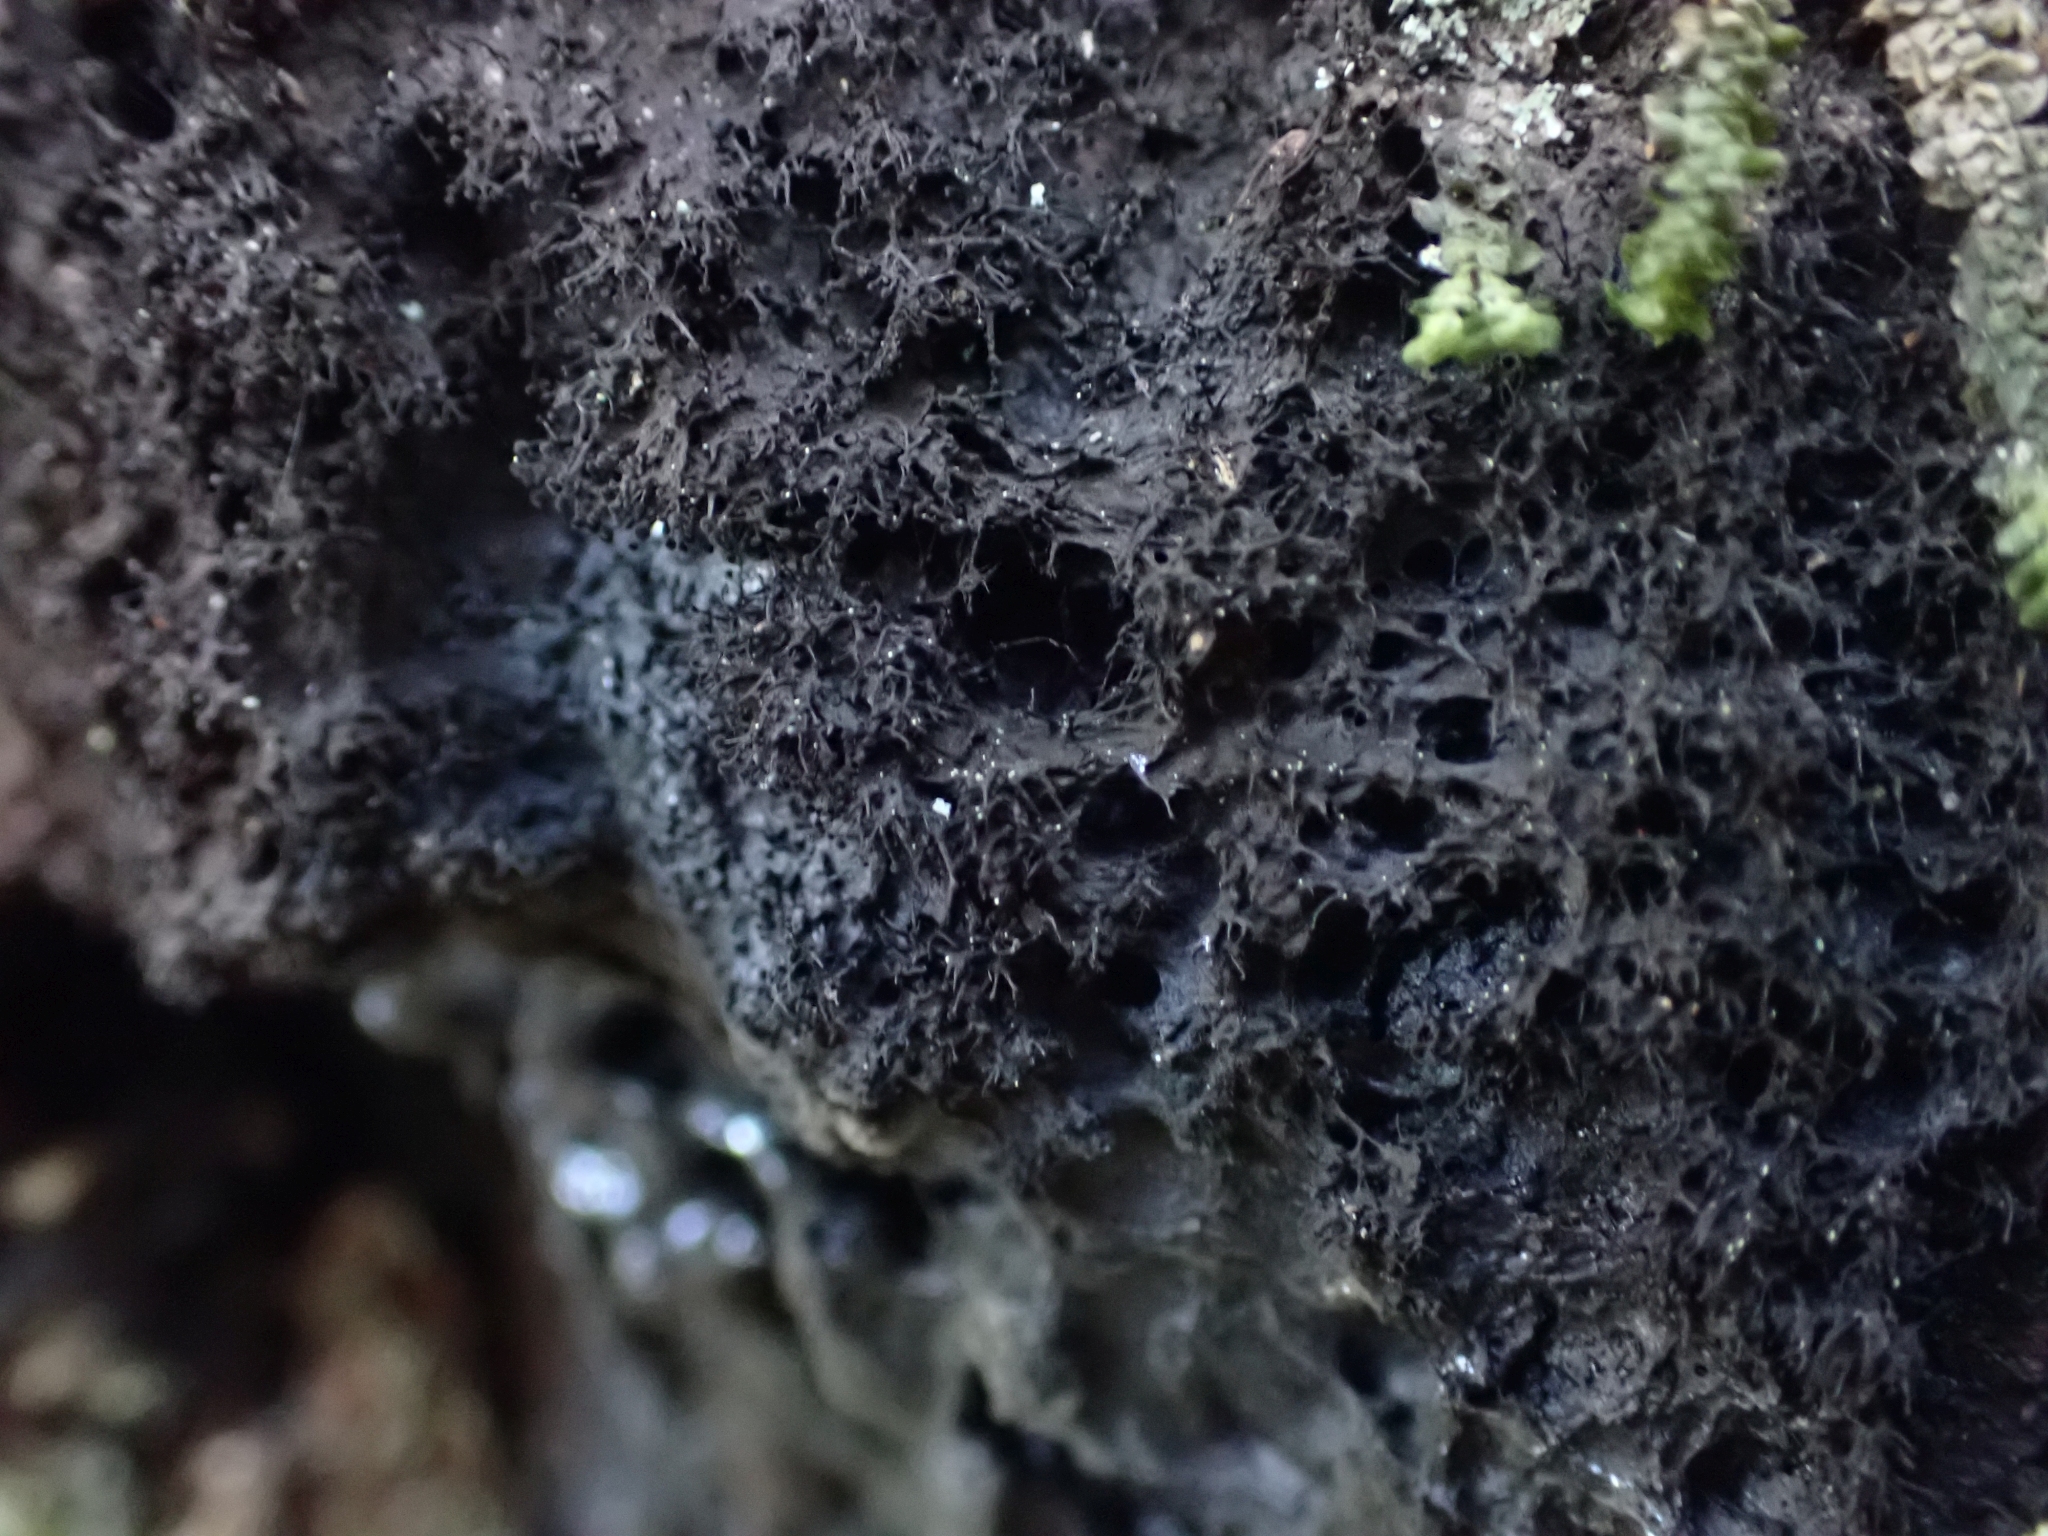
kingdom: Fungi
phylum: Ascomycota
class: Leotiomycetes
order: Helotiales
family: Amorphothecaceae
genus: Sorocybe
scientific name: Sorocybe resinae
